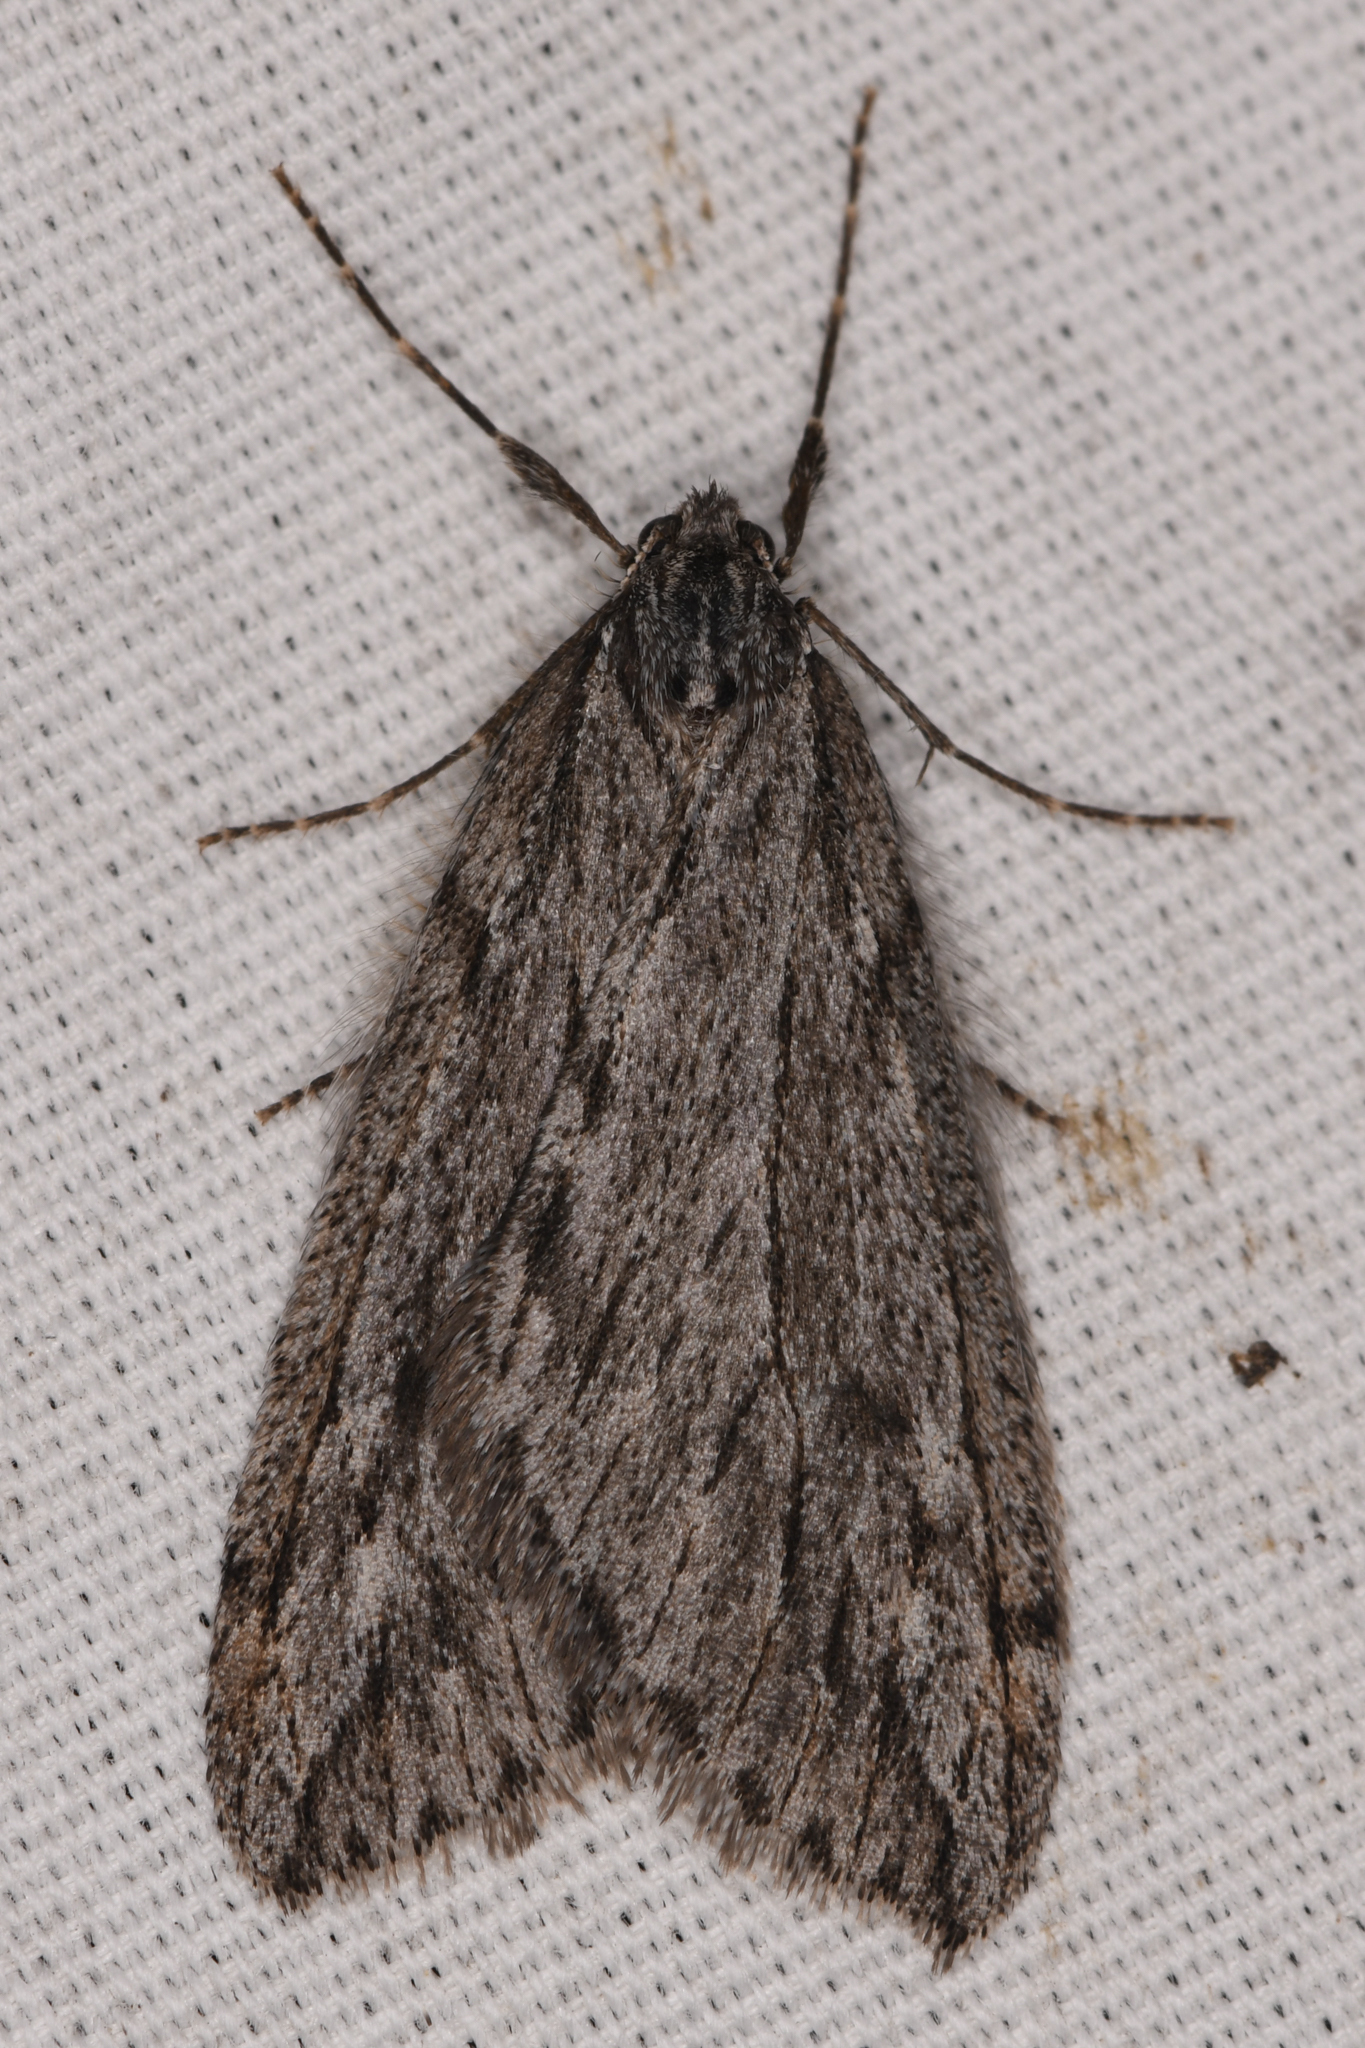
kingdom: Animalia
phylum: Arthropoda
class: Insecta
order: Lepidoptera
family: Geometridae
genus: Paleacrita
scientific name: Paleacrita longiciliata
